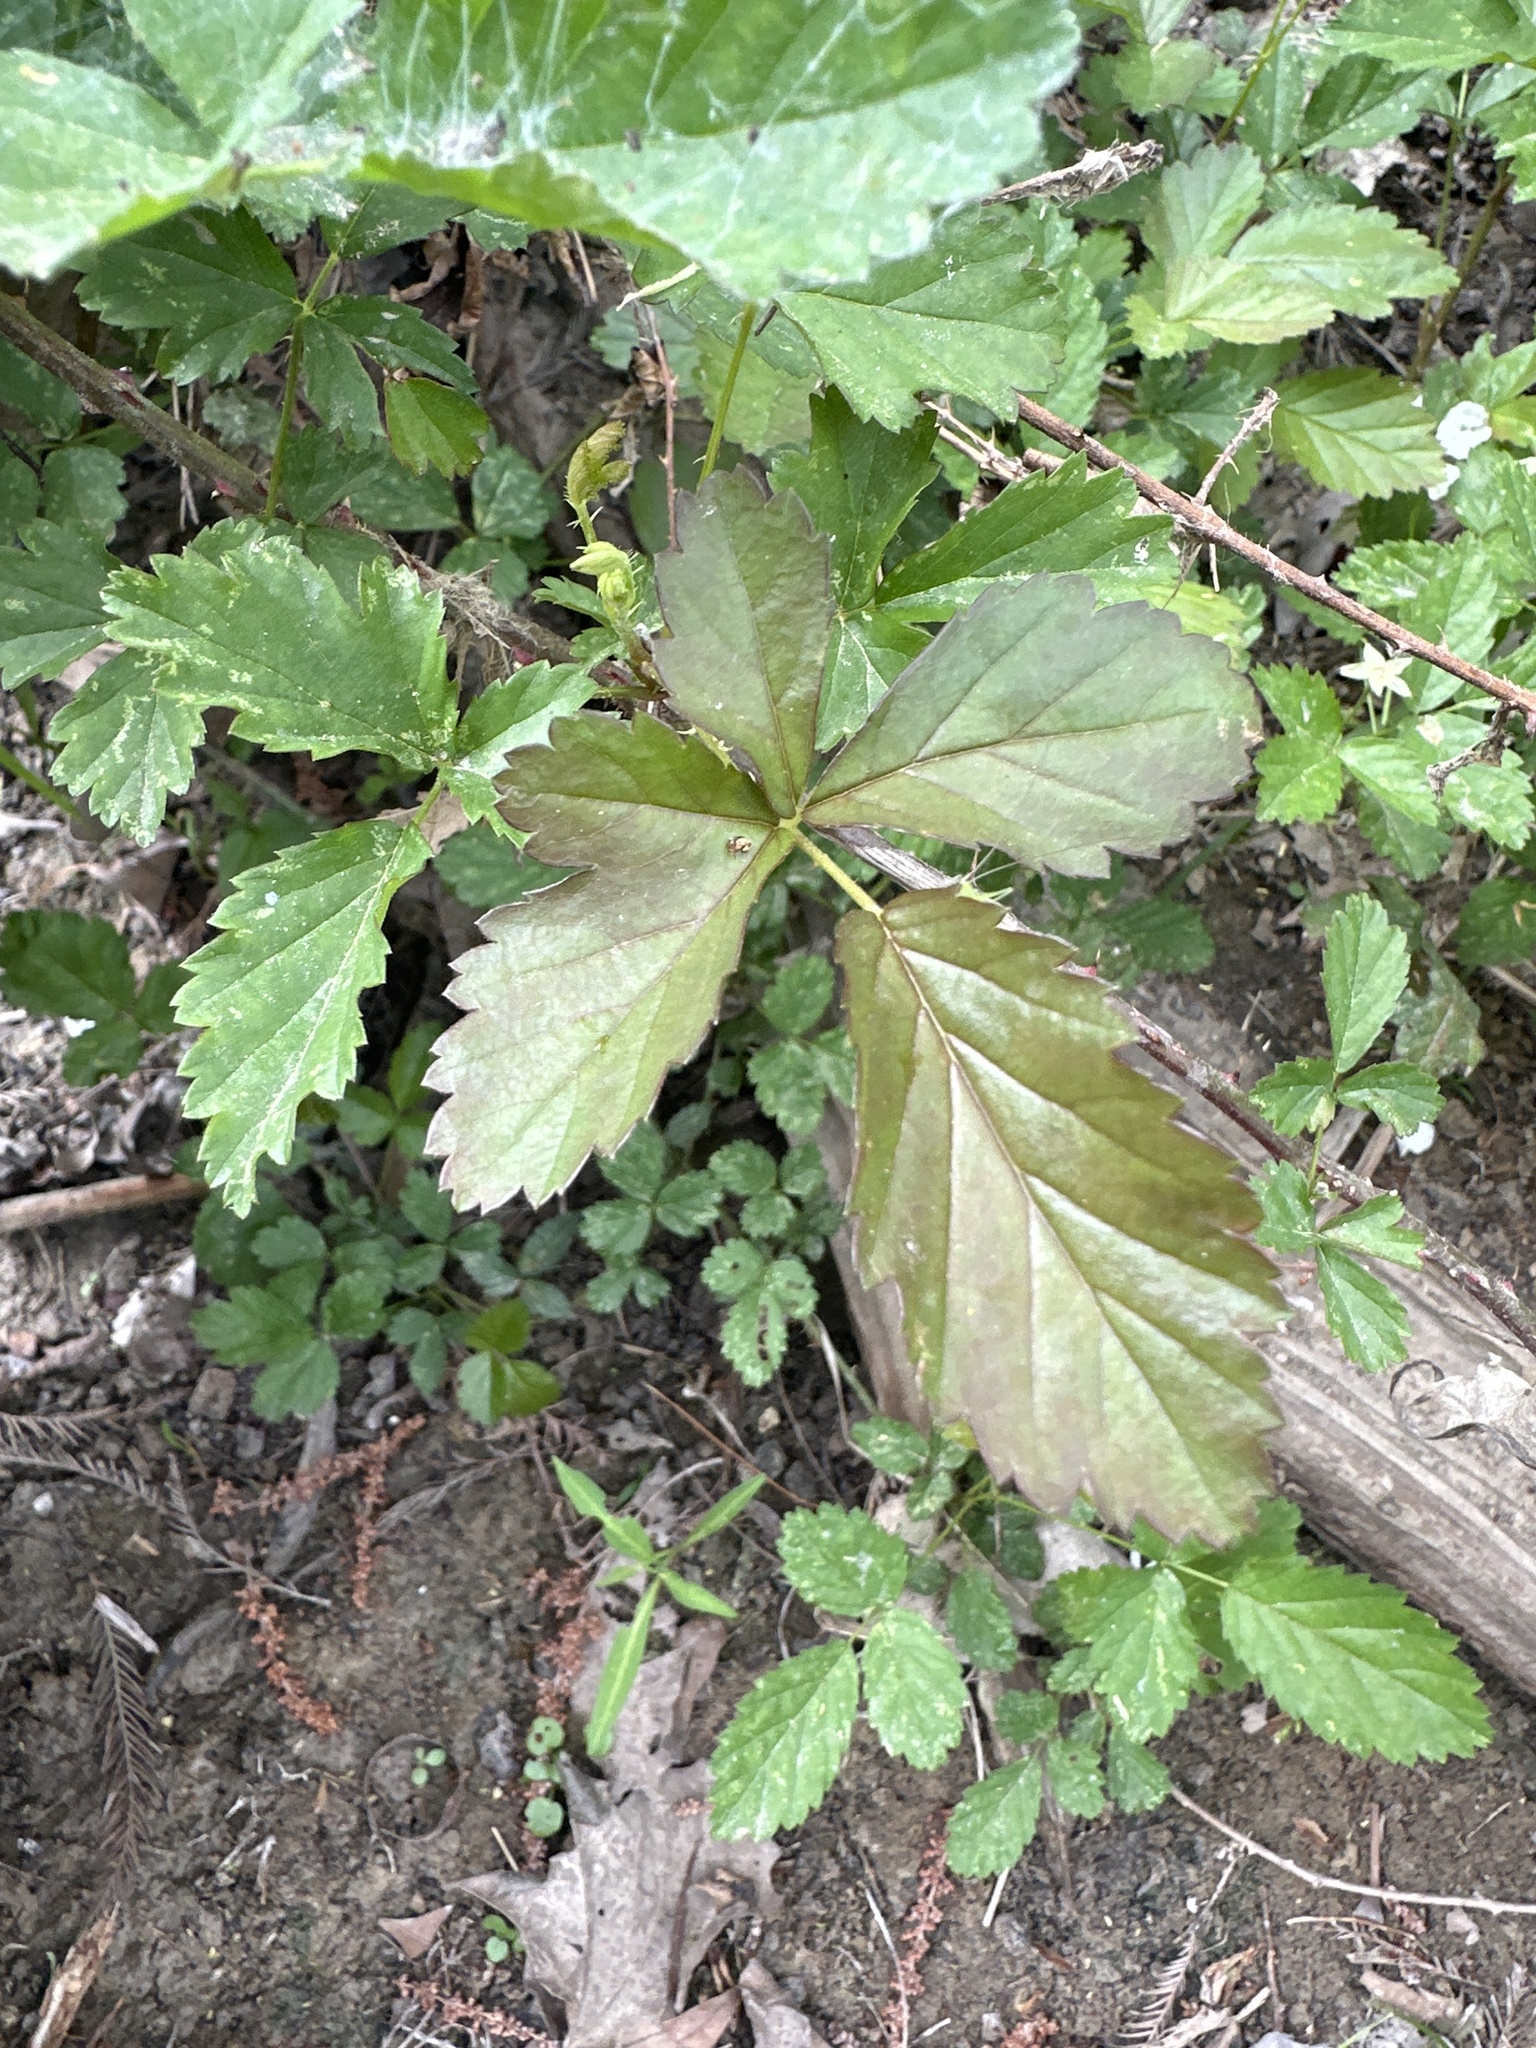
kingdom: Plantae
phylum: Tracheophyta
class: Magnoliopsida
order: Rosales
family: Rosaceae
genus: Rubus
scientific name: Rubus trivialis
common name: Southern dewberry
